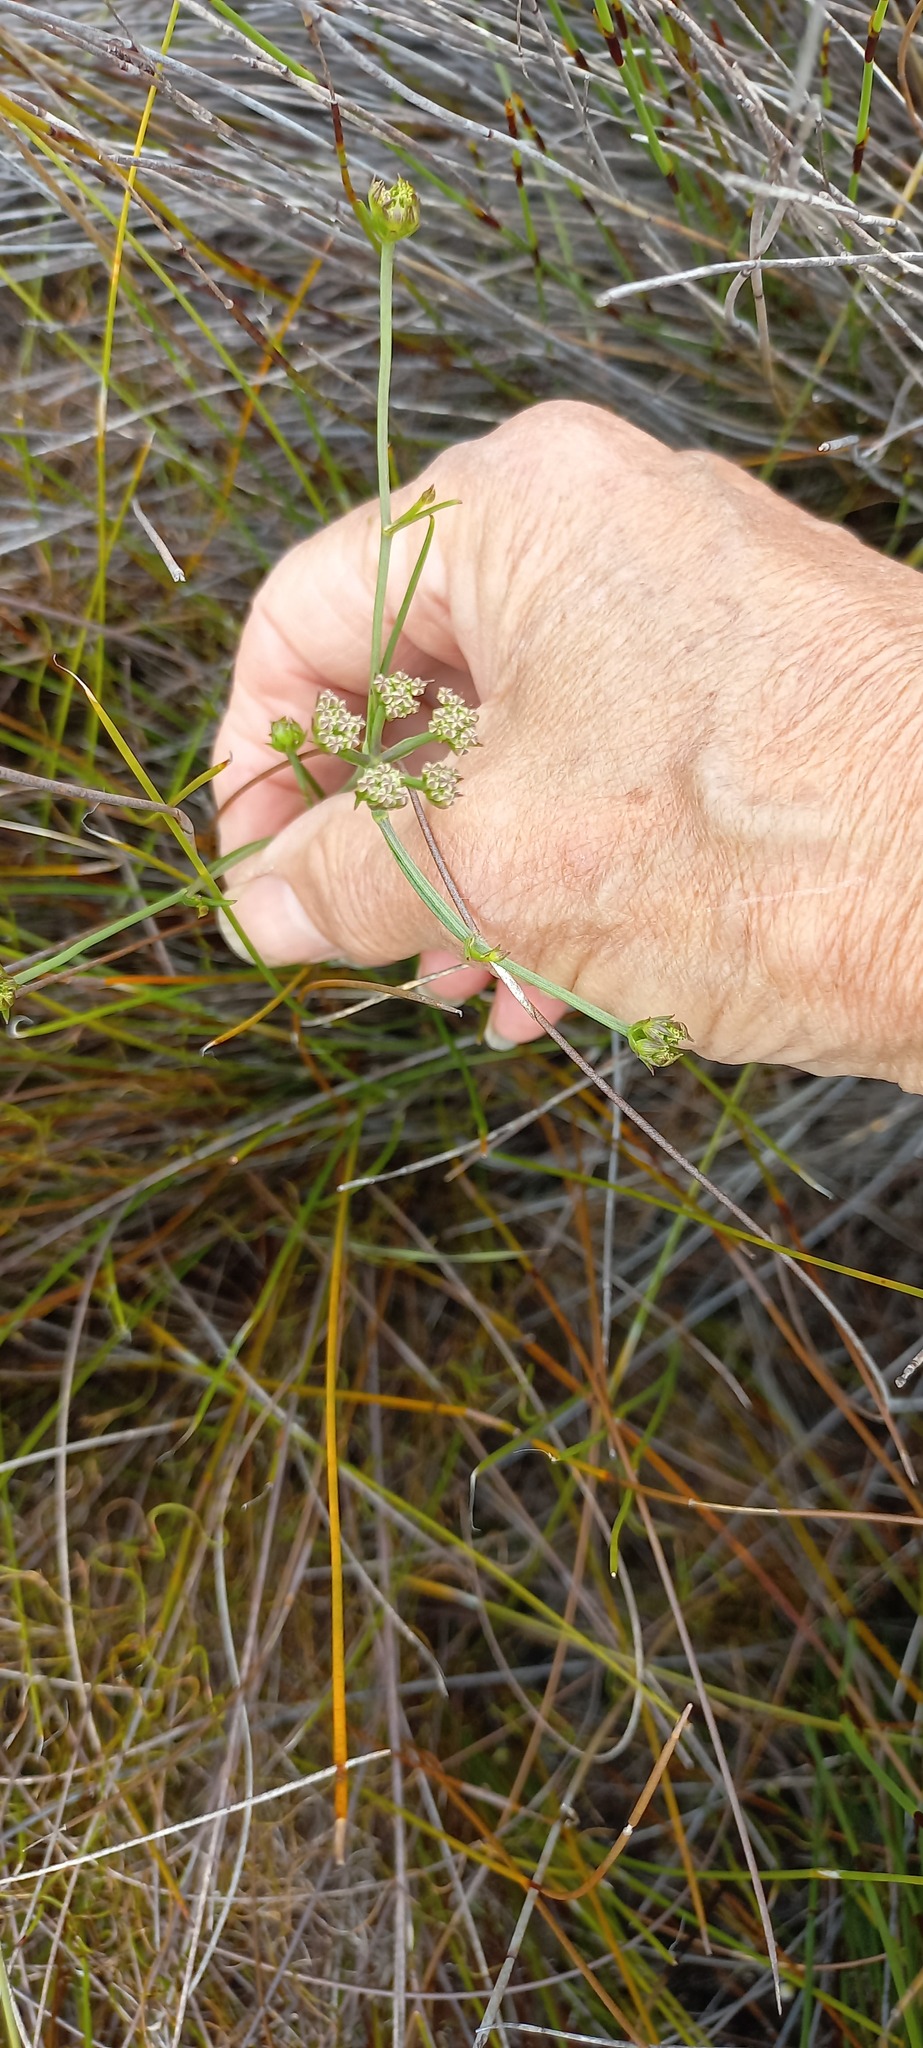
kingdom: Plantae
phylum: Tracheophyta
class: Magnoliopsida
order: Apiales
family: Apiaceae
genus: Itasina
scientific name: Itasina filifolia
